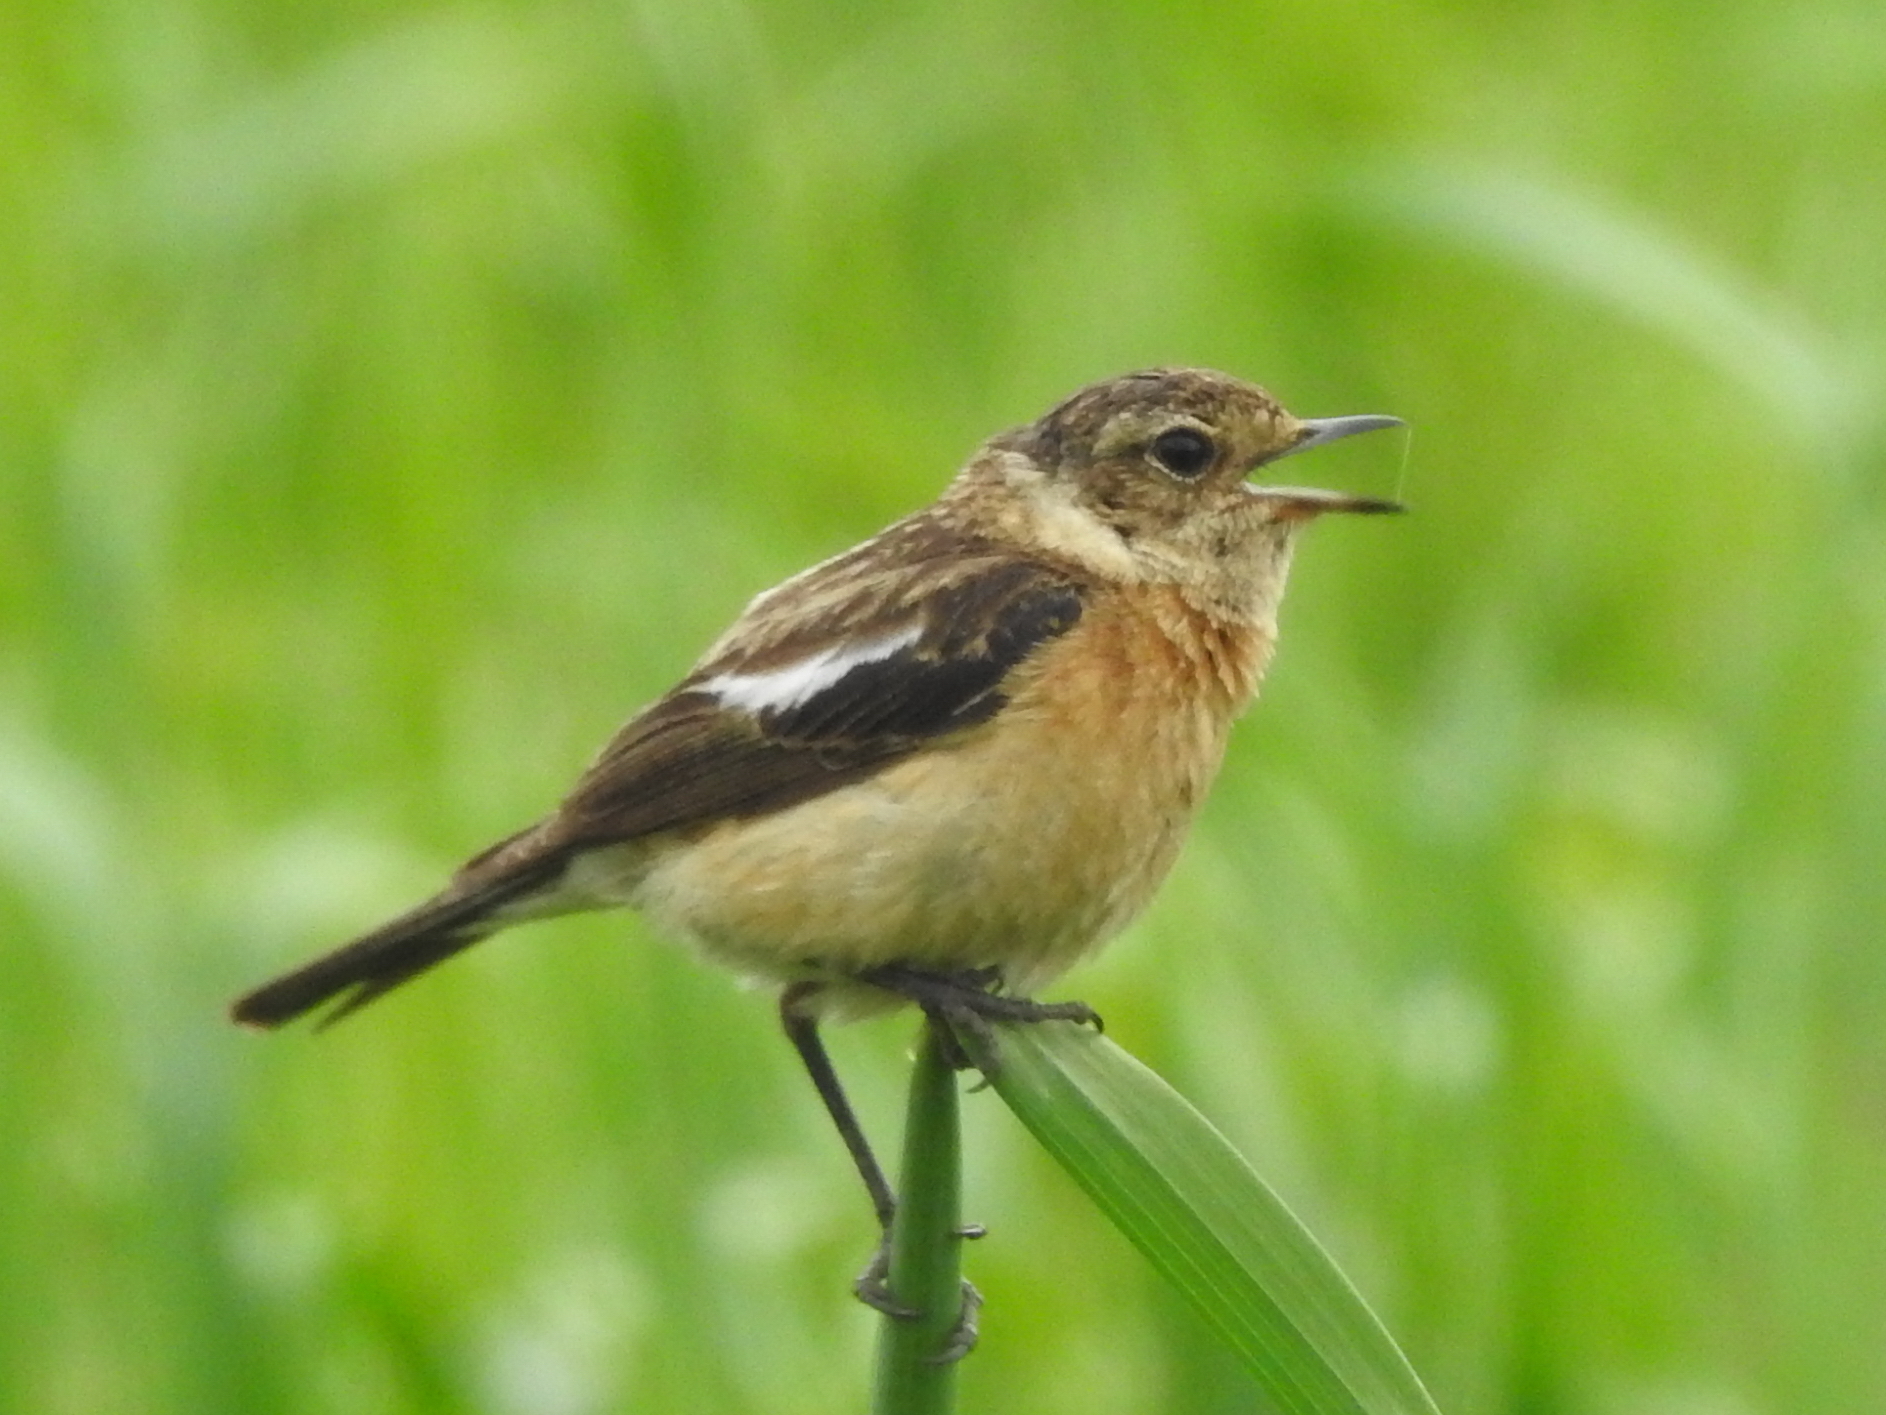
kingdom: Animalia
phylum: Chordata
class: Aves
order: Passeriformes
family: Muscicapidae
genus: Saxicola
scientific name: Saxicola maurus
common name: Siberian stonechat
